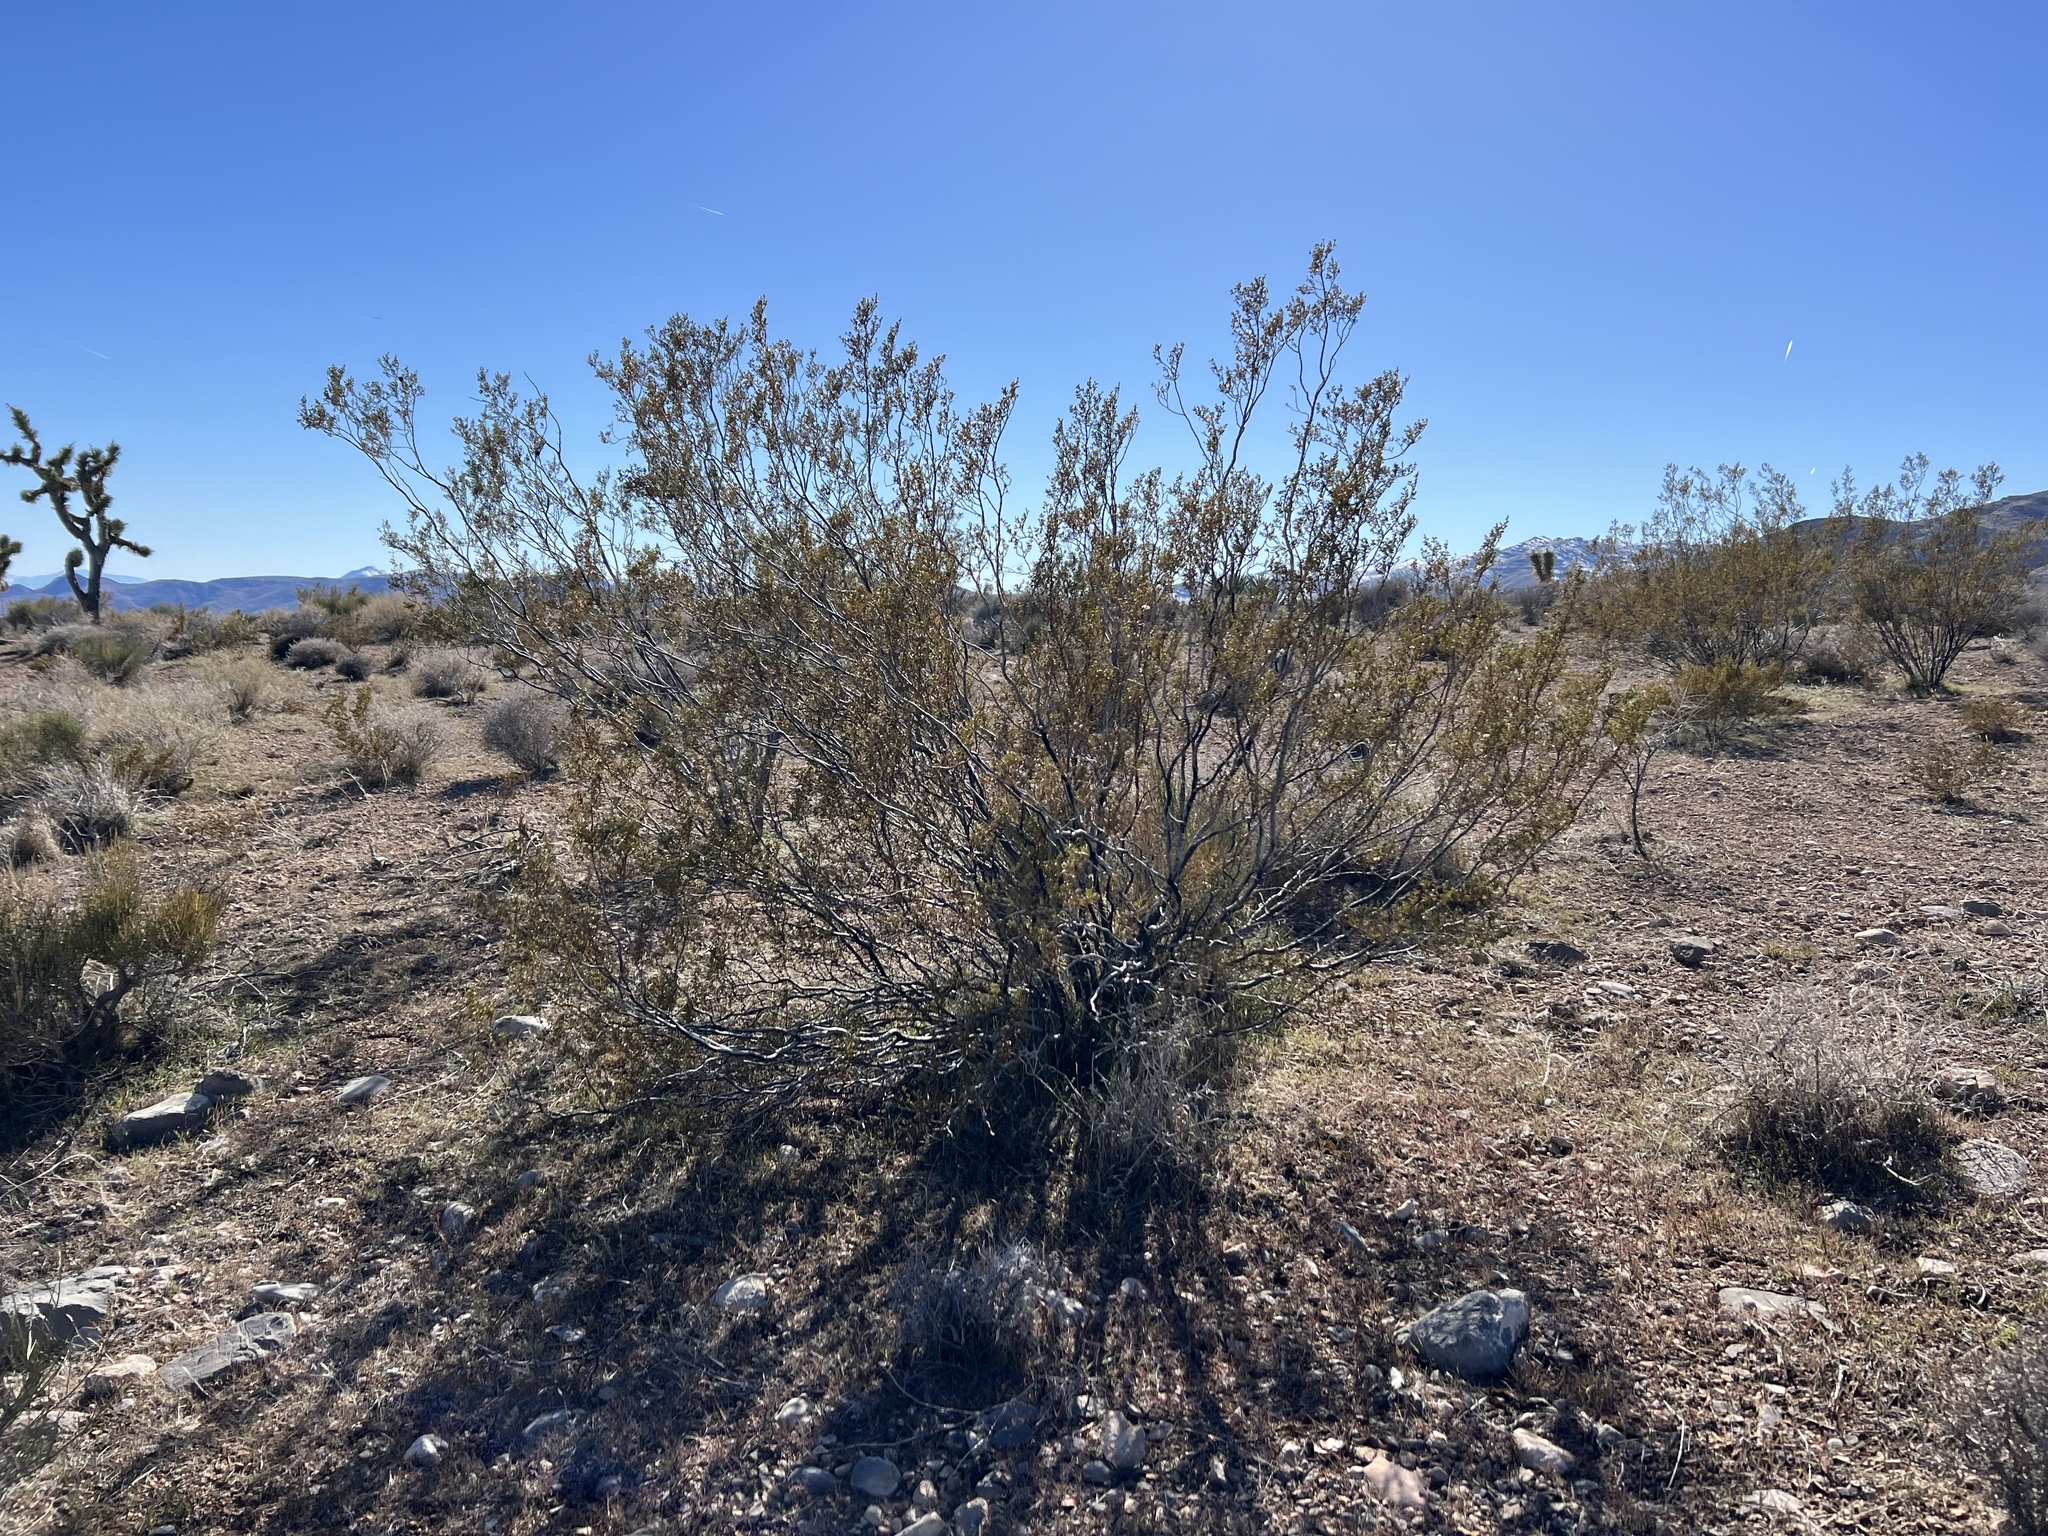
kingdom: Plantae
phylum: Tracheophyta
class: Magnoliopsida
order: Zygophyllales
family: Zygophyllaceae
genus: Larrea
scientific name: Larrea tridentata
